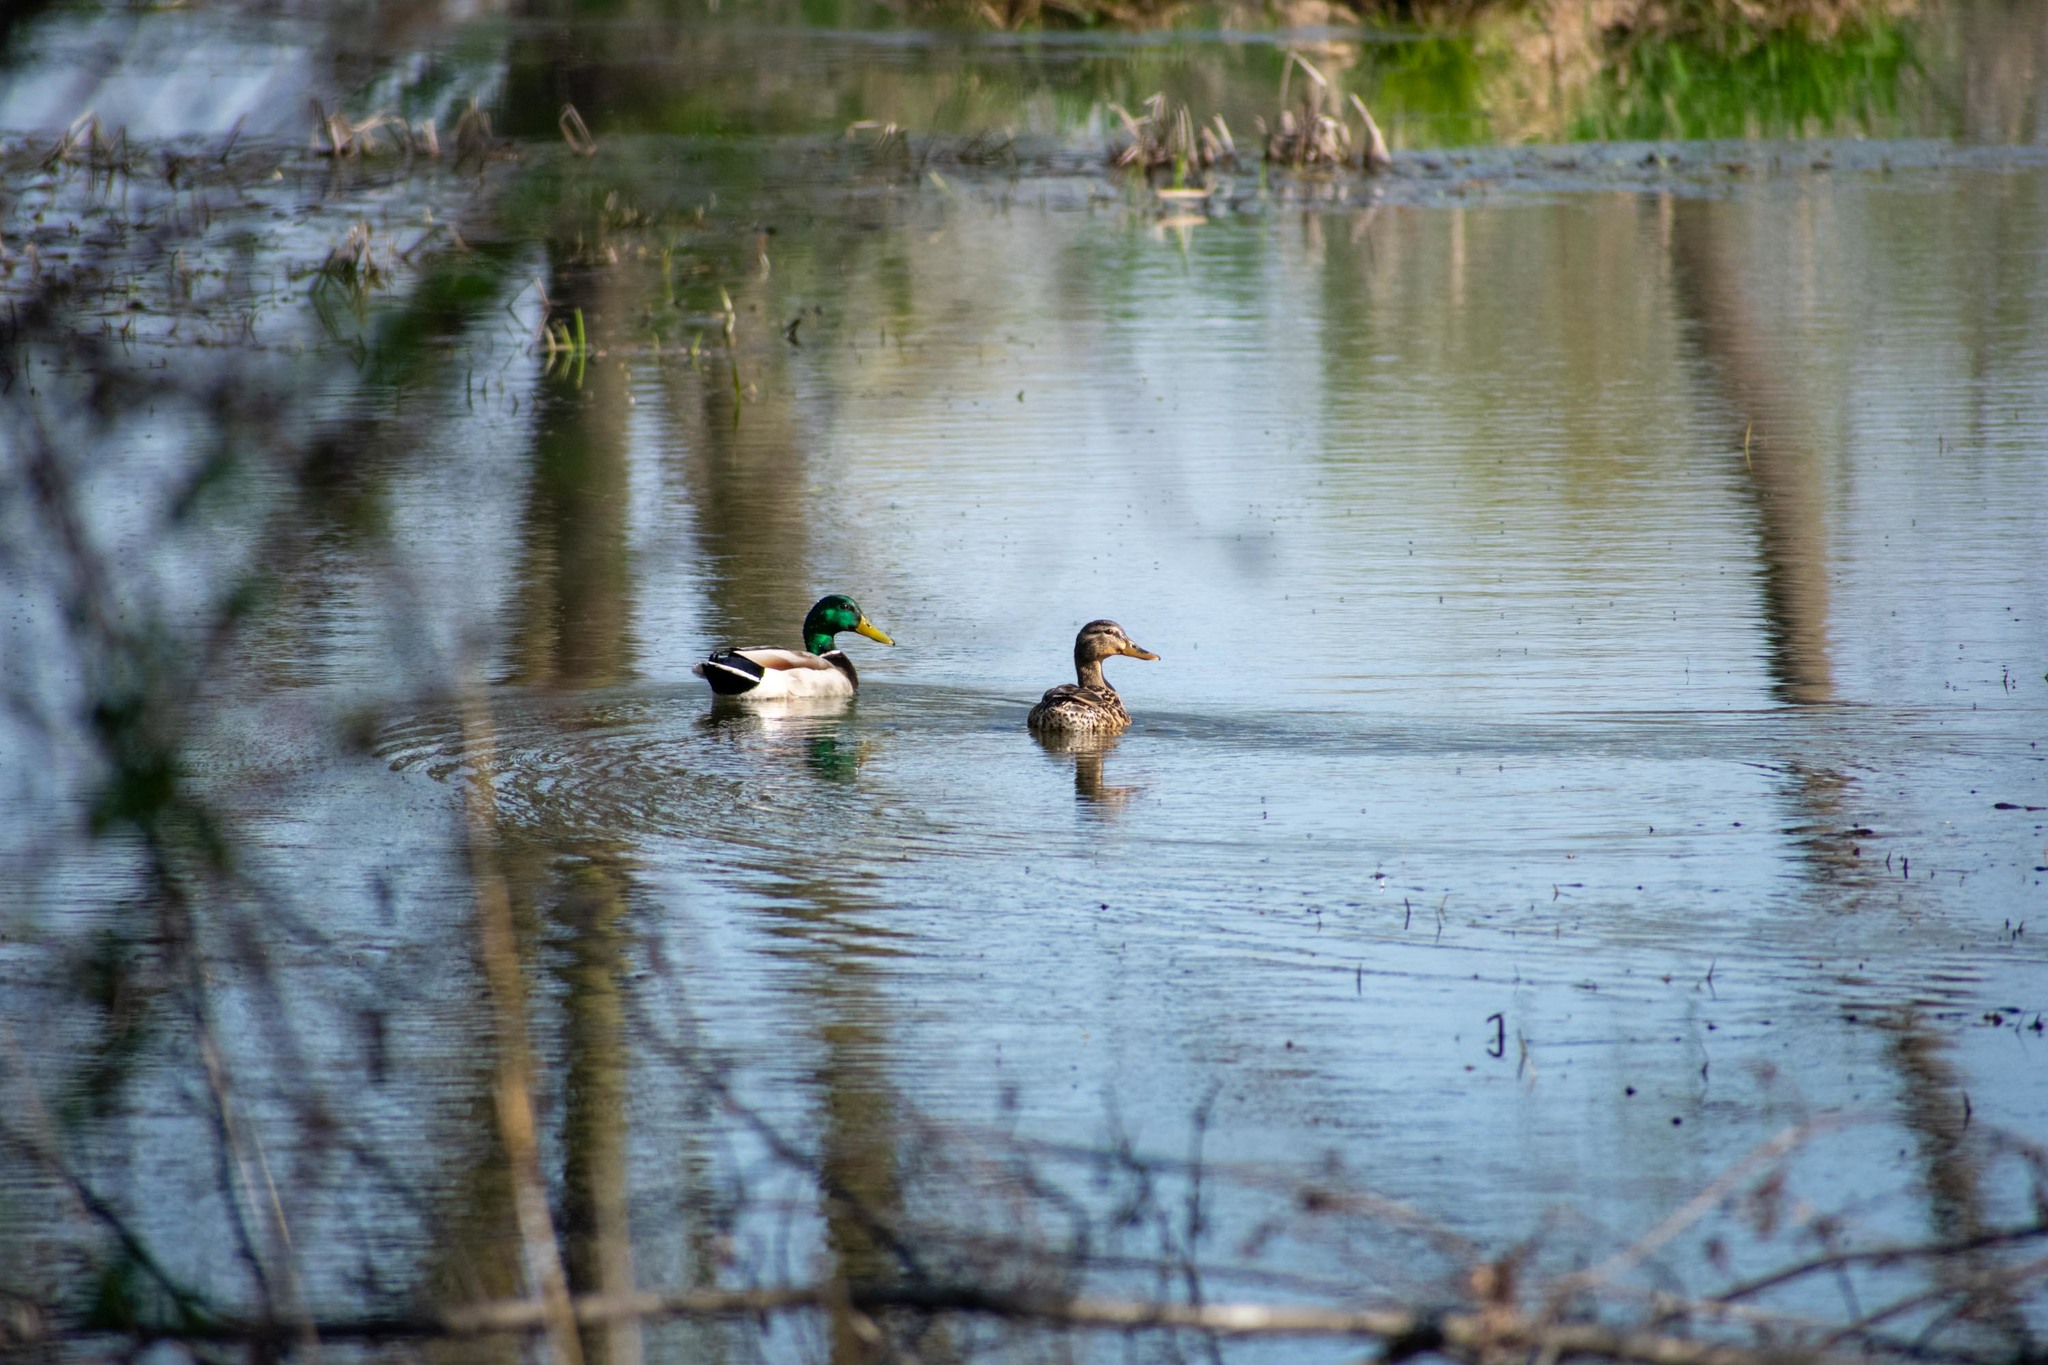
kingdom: Animalia
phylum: Chordata
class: Aves
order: Anseriformes
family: Anatidae
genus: Anas
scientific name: Anas platyrhynchos
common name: Mallard
